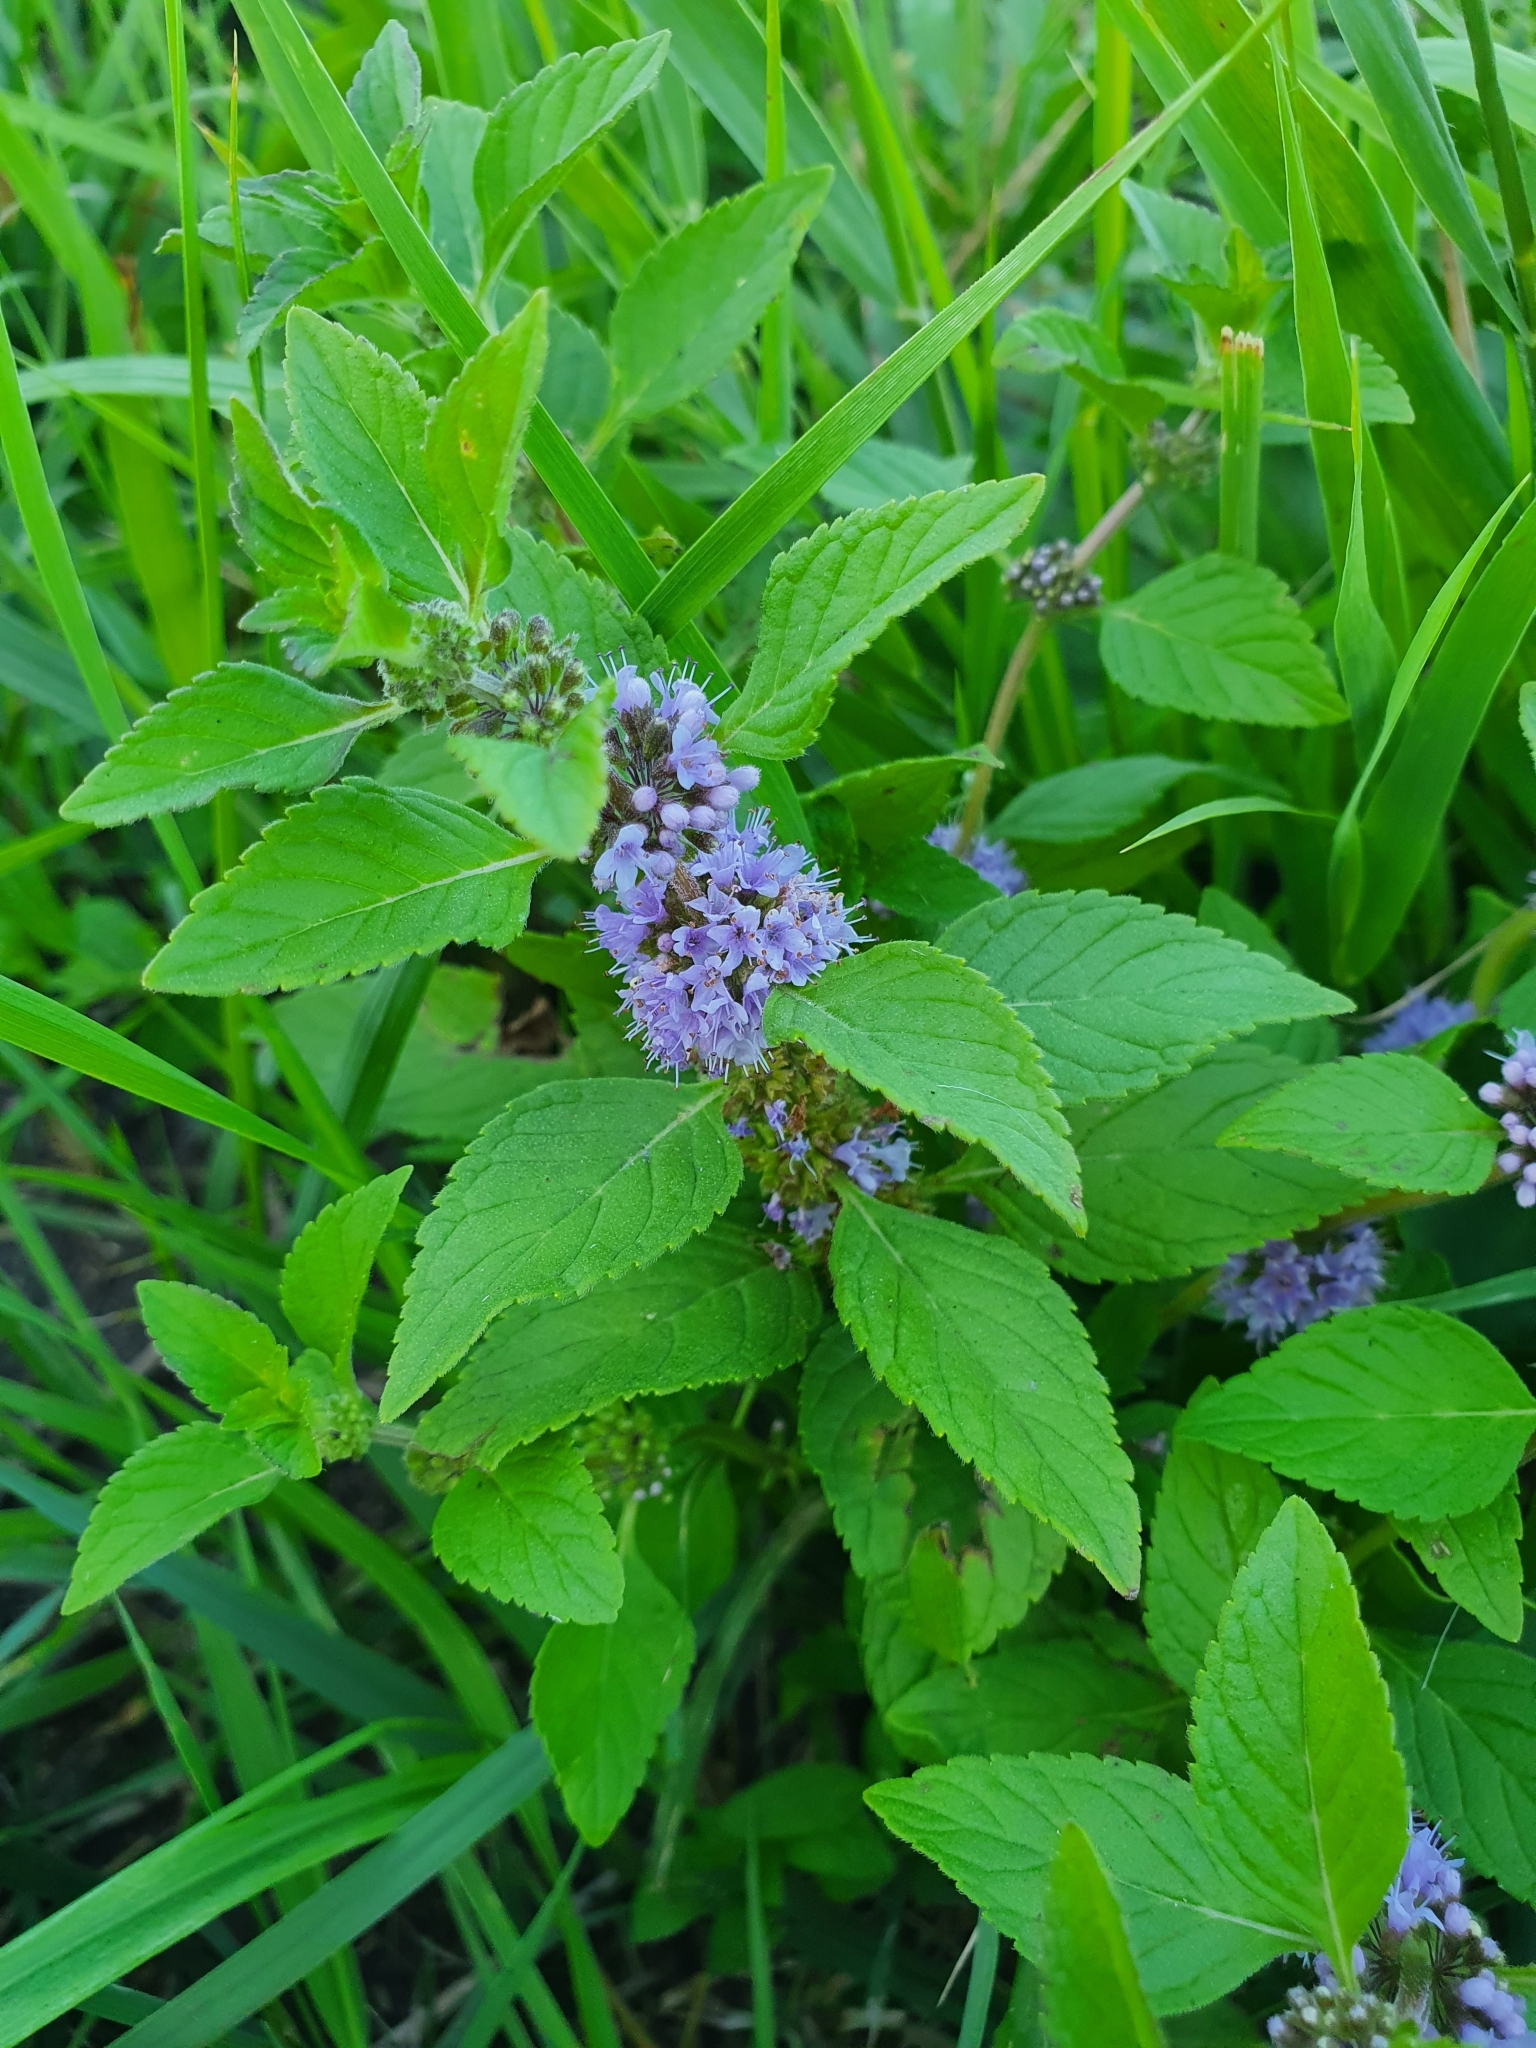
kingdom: Plantae
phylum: Tracheophyta
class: Magnoliopsida
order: Lamiales
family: Lamiaceae
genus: Mentha
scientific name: Mentha arvensis
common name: Corn mint
